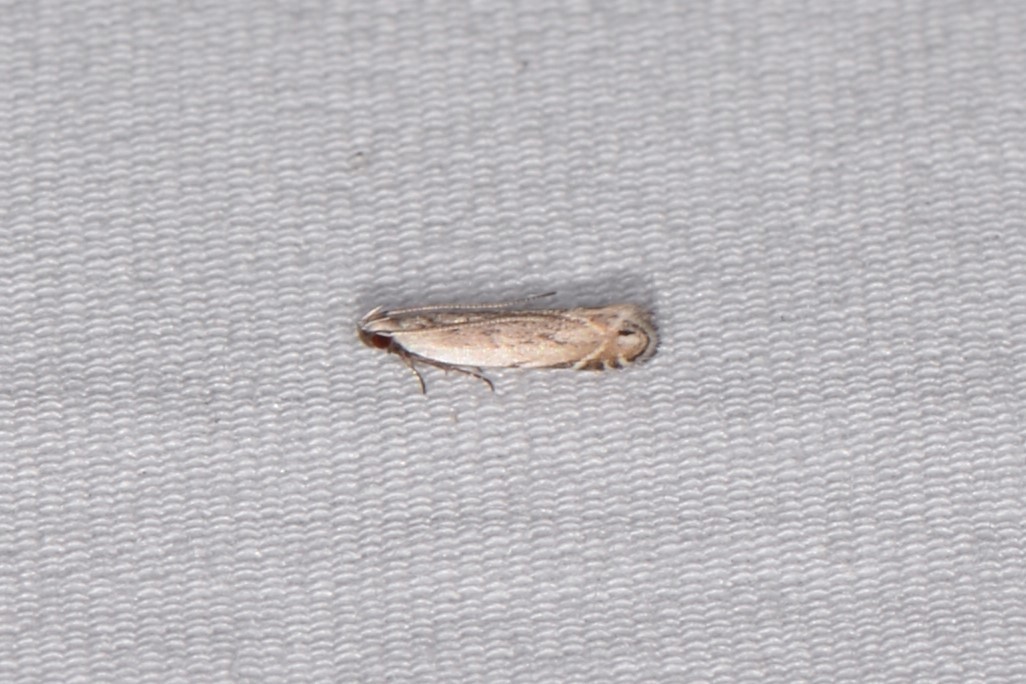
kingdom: Animalia
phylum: Arthropoda
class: Insecta
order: Lepidoptera
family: Gelechiidae
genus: Battaristis
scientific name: Battaristis nigratomella
